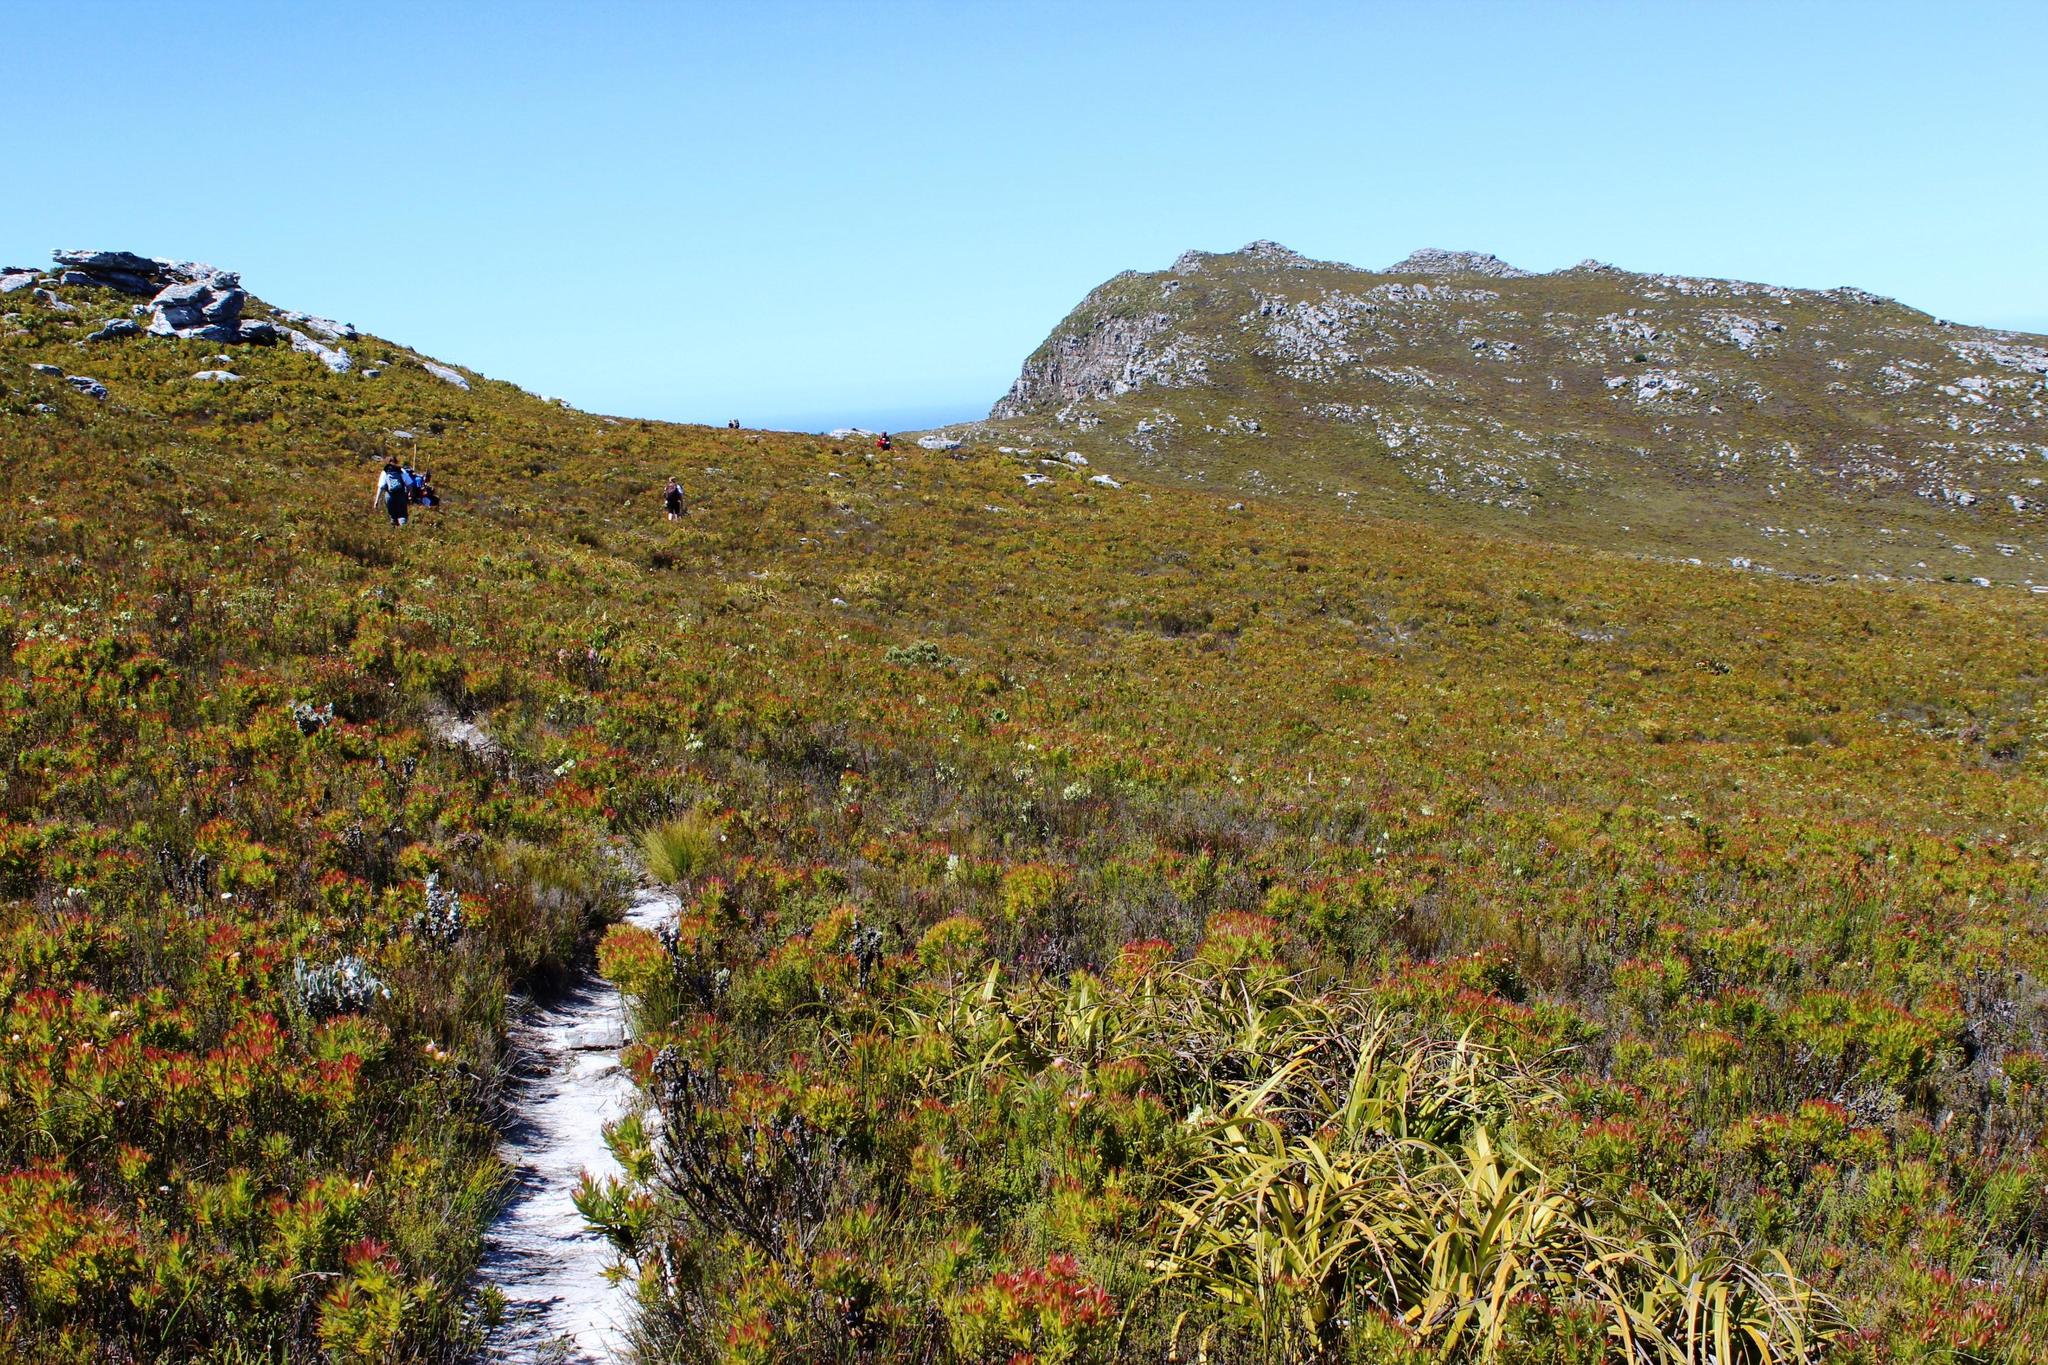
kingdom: Plantae
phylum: Tracheophyta
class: Magnoliopsida
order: Proteales
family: Proteaceae
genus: Leucadendron
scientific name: Leucadendron xanthoconus
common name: Sickle-leaf conebush
